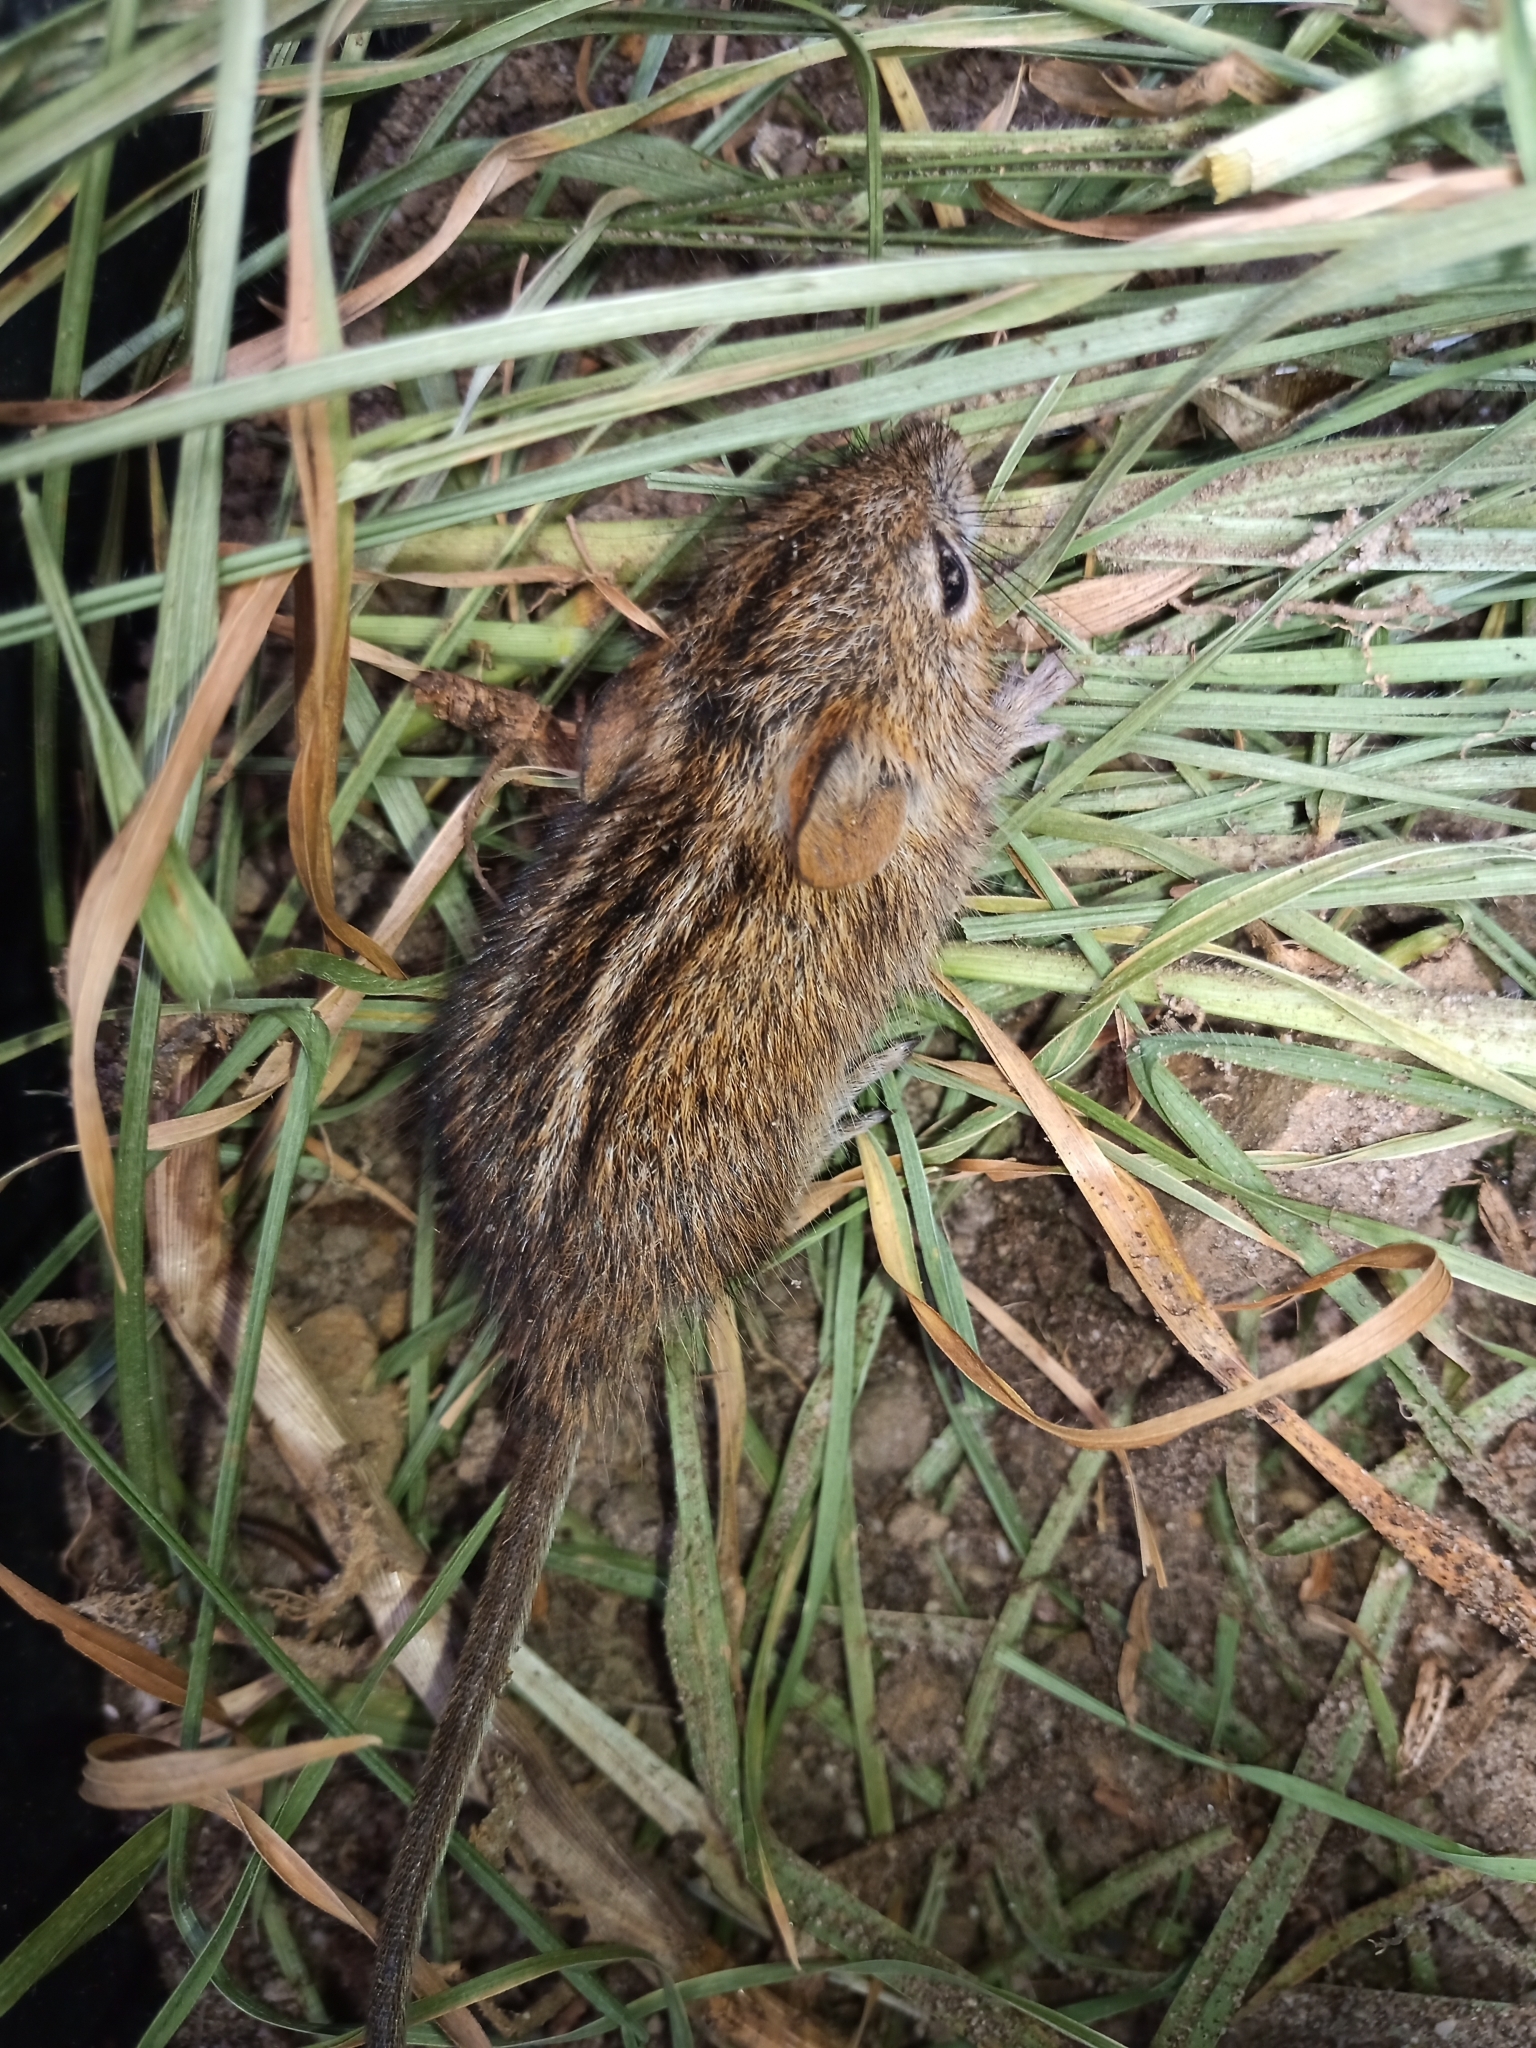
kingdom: Animalia
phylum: Chordata
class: Mammalia
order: Rodentia
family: Muridae
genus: Rhabdomys
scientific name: Rhabdomys pumilio
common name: Xeric four-striped grass rat
